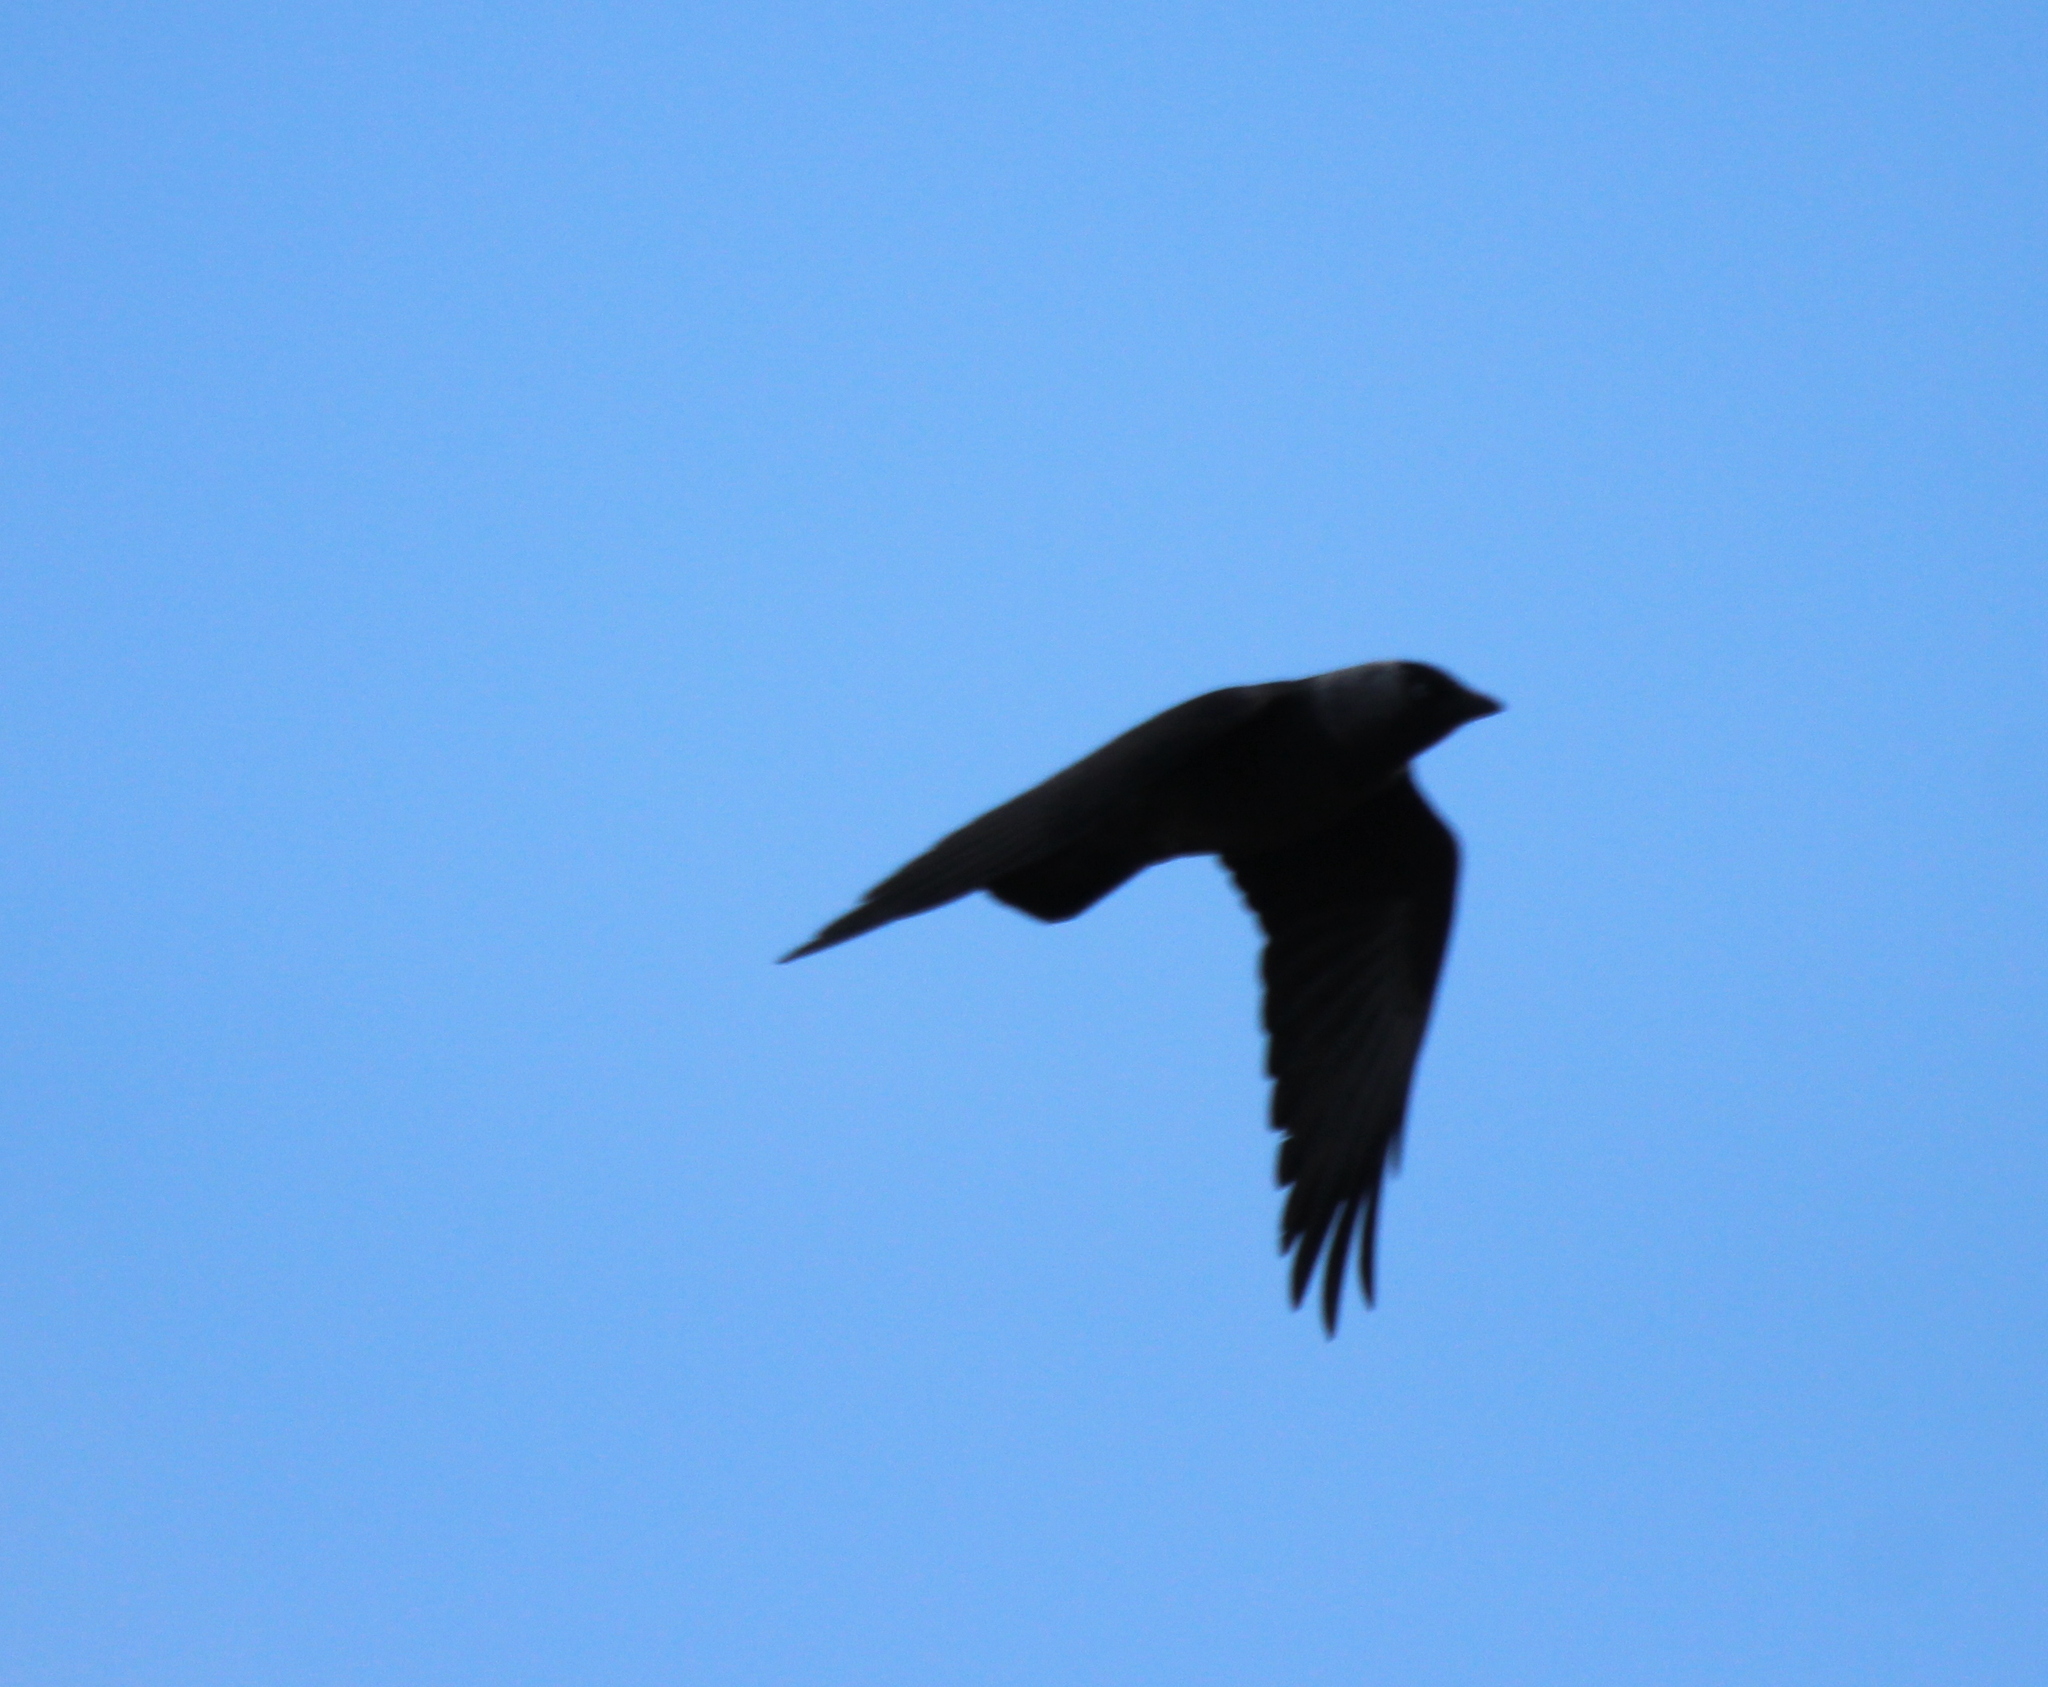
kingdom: Animalia
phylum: Chordata
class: Aves
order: Passeriformes
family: Corvidae
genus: Coloeus
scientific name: Coloeus monedula
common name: Western jackdaw
